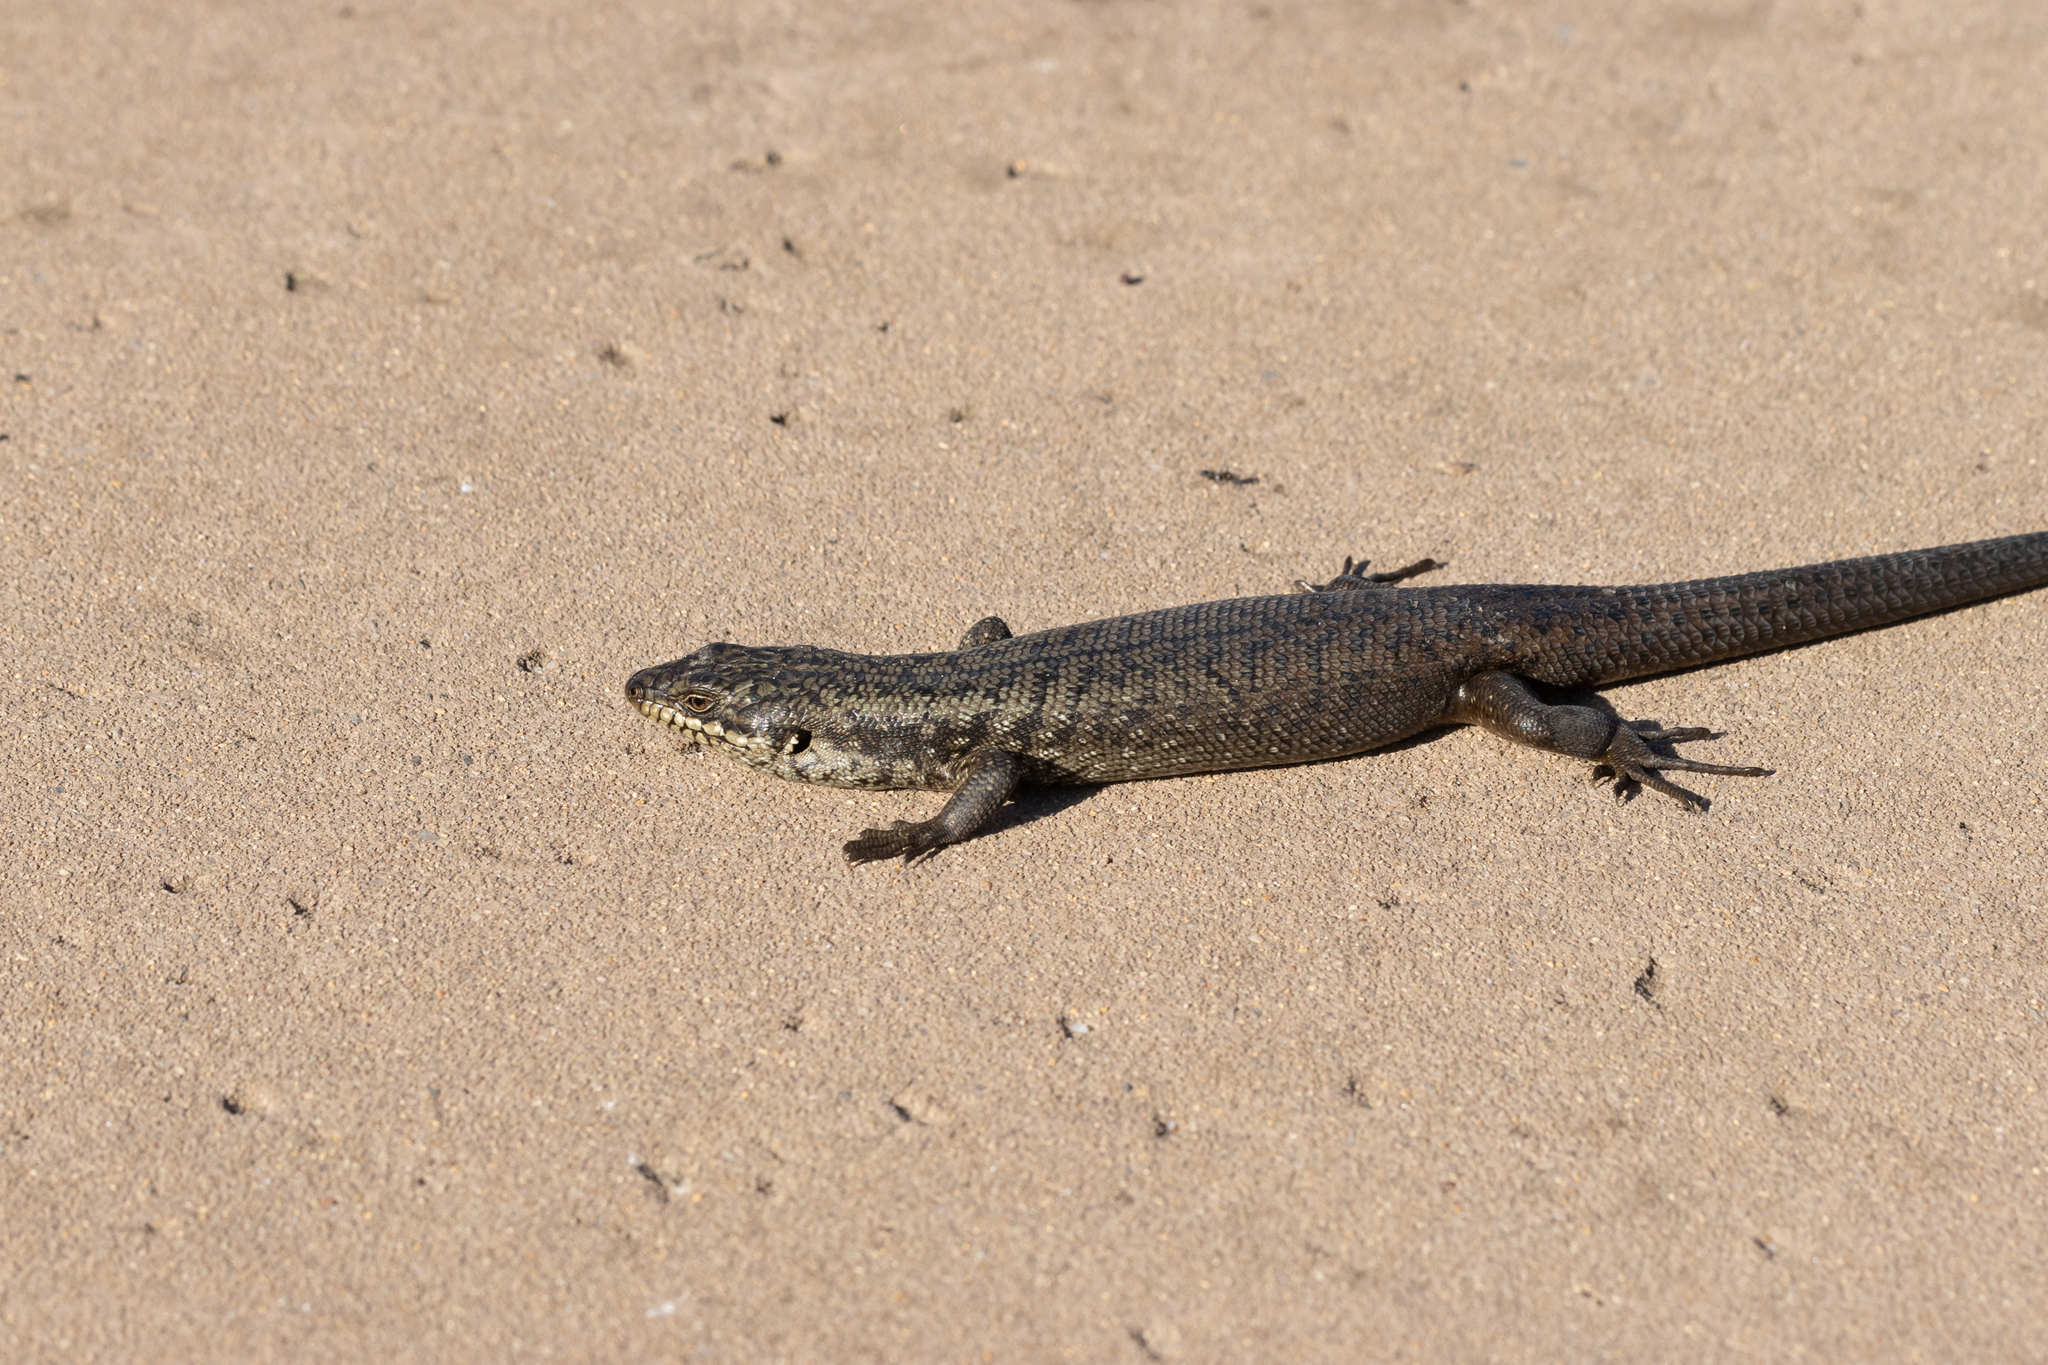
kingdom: Animalia
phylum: Chordata
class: Squamata
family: Scincidae
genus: Egernia
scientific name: Egernia napoleonis
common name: South-western crevice skink
